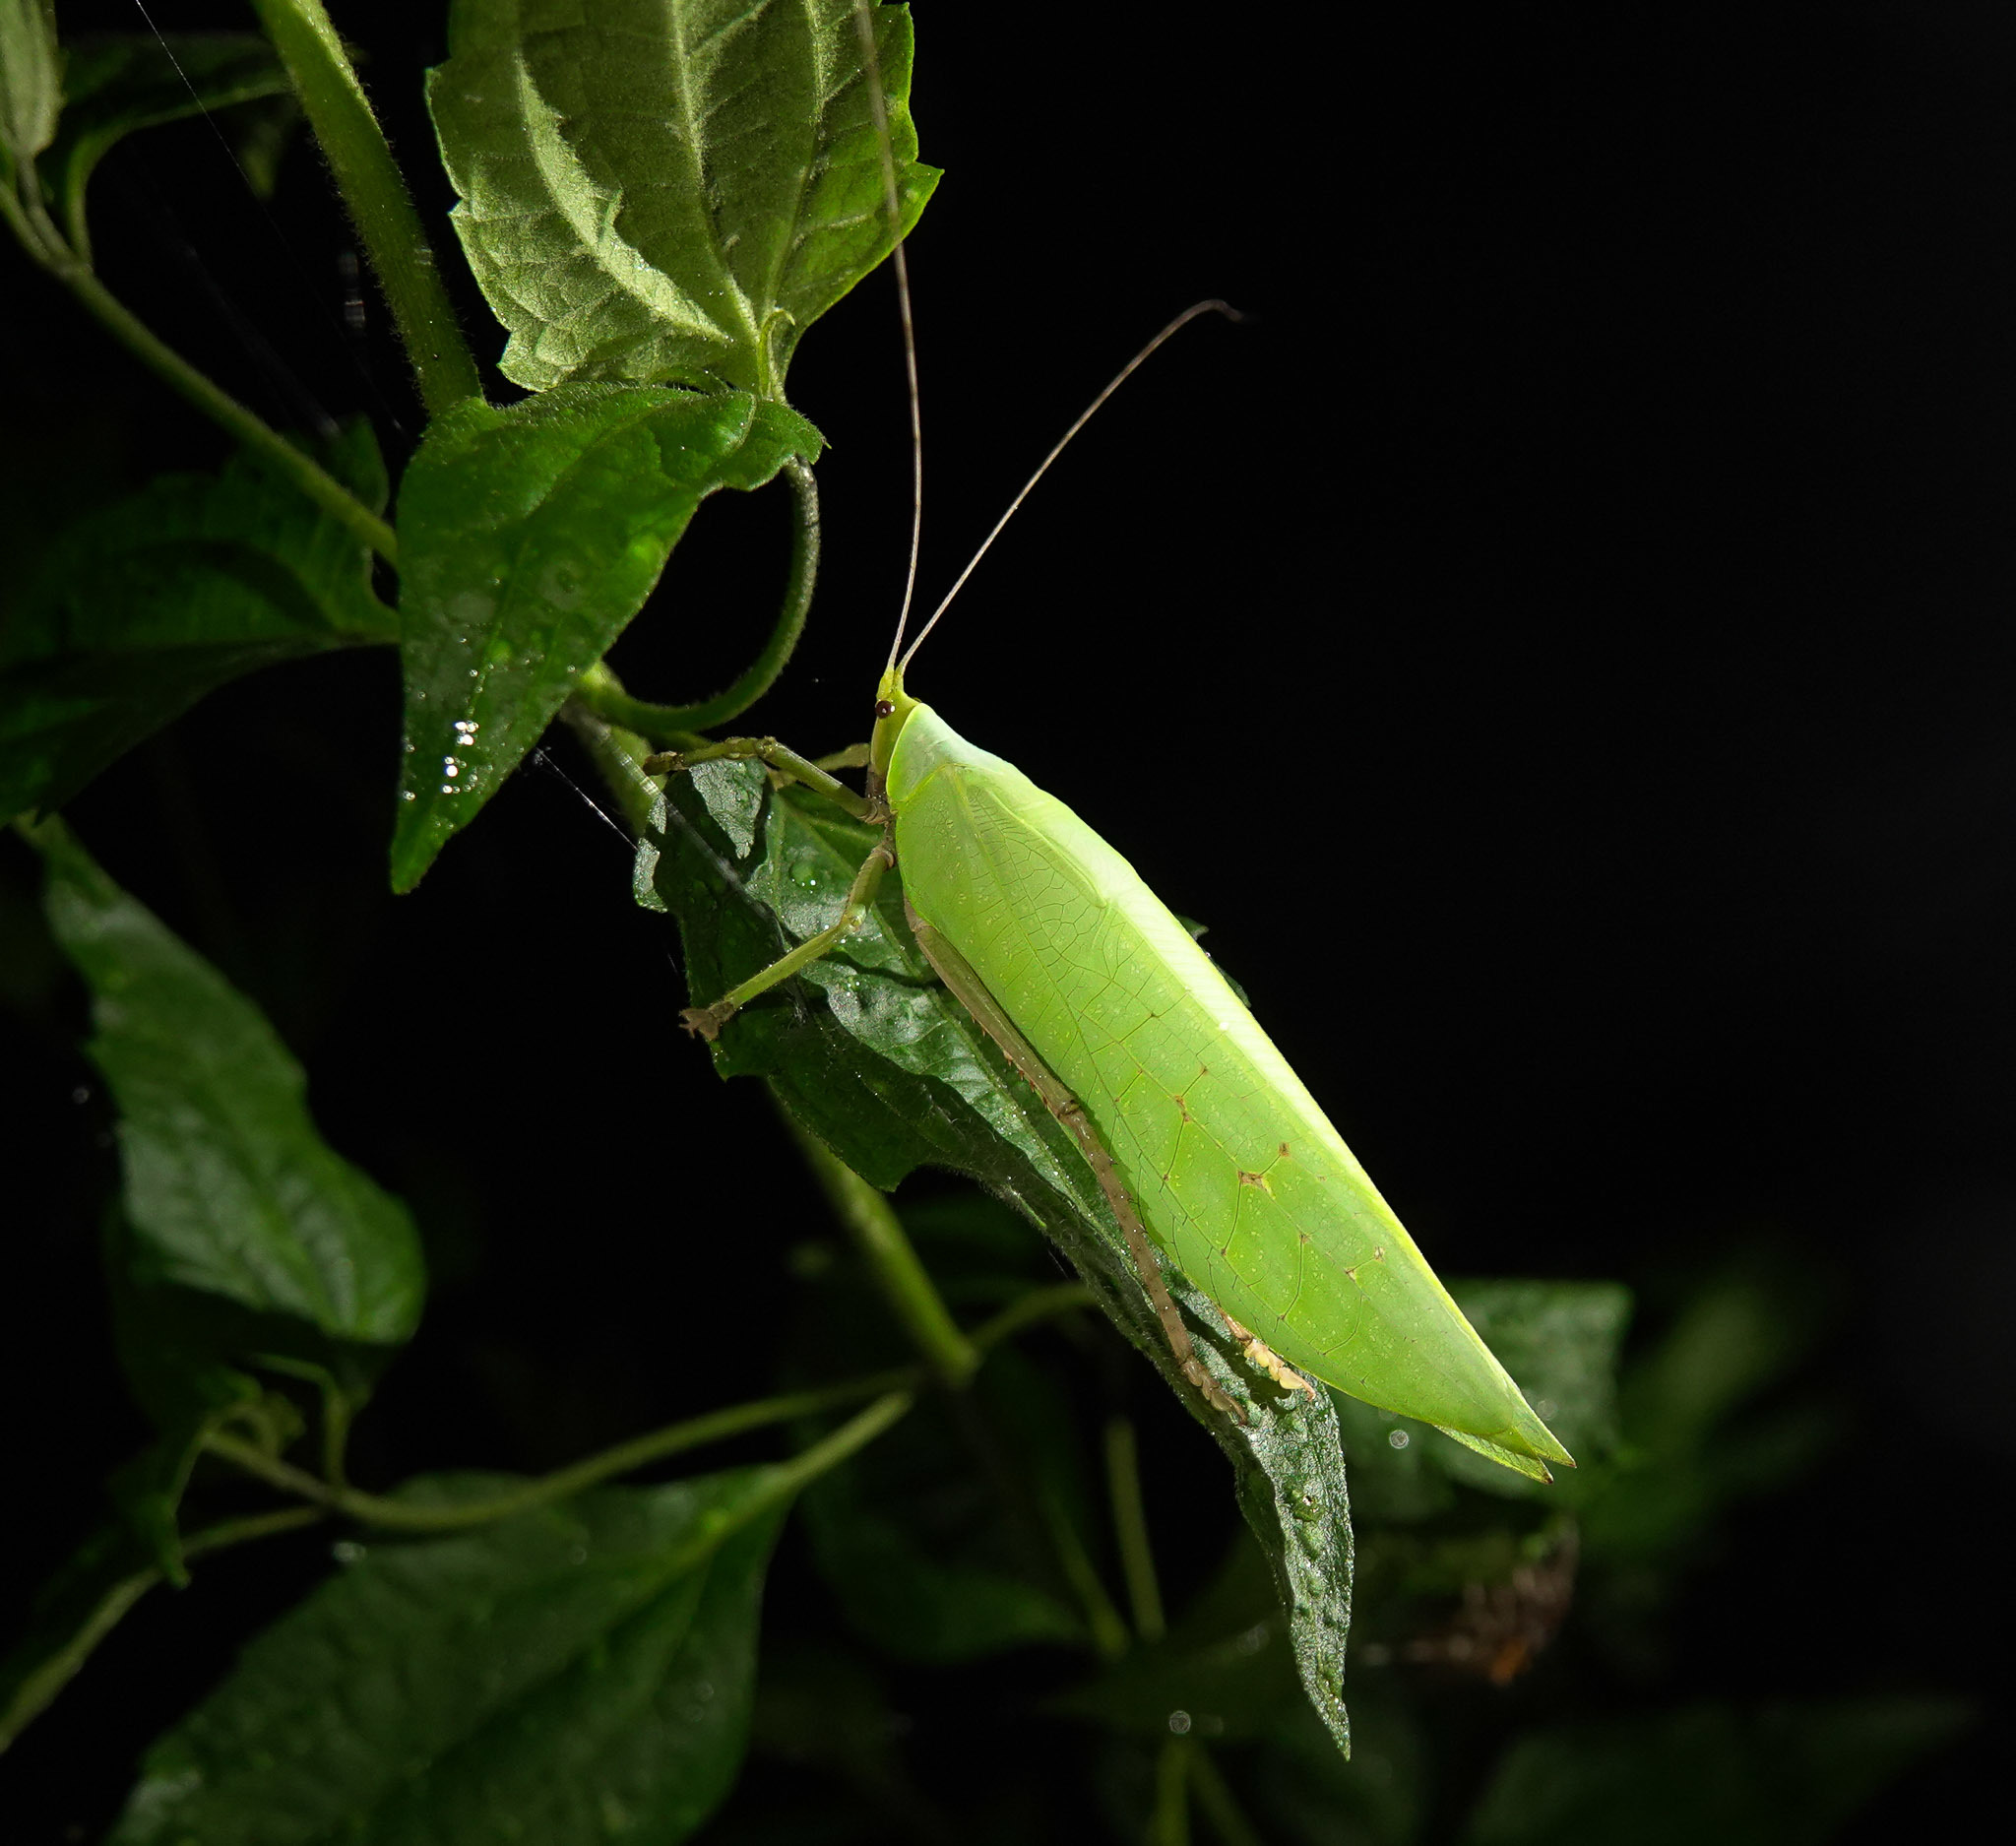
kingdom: Animalia
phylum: Arthropoda
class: Insecta
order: Orthoptera
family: Tettigoniidae
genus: Onomarchus
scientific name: Onomarchus uninotatus
